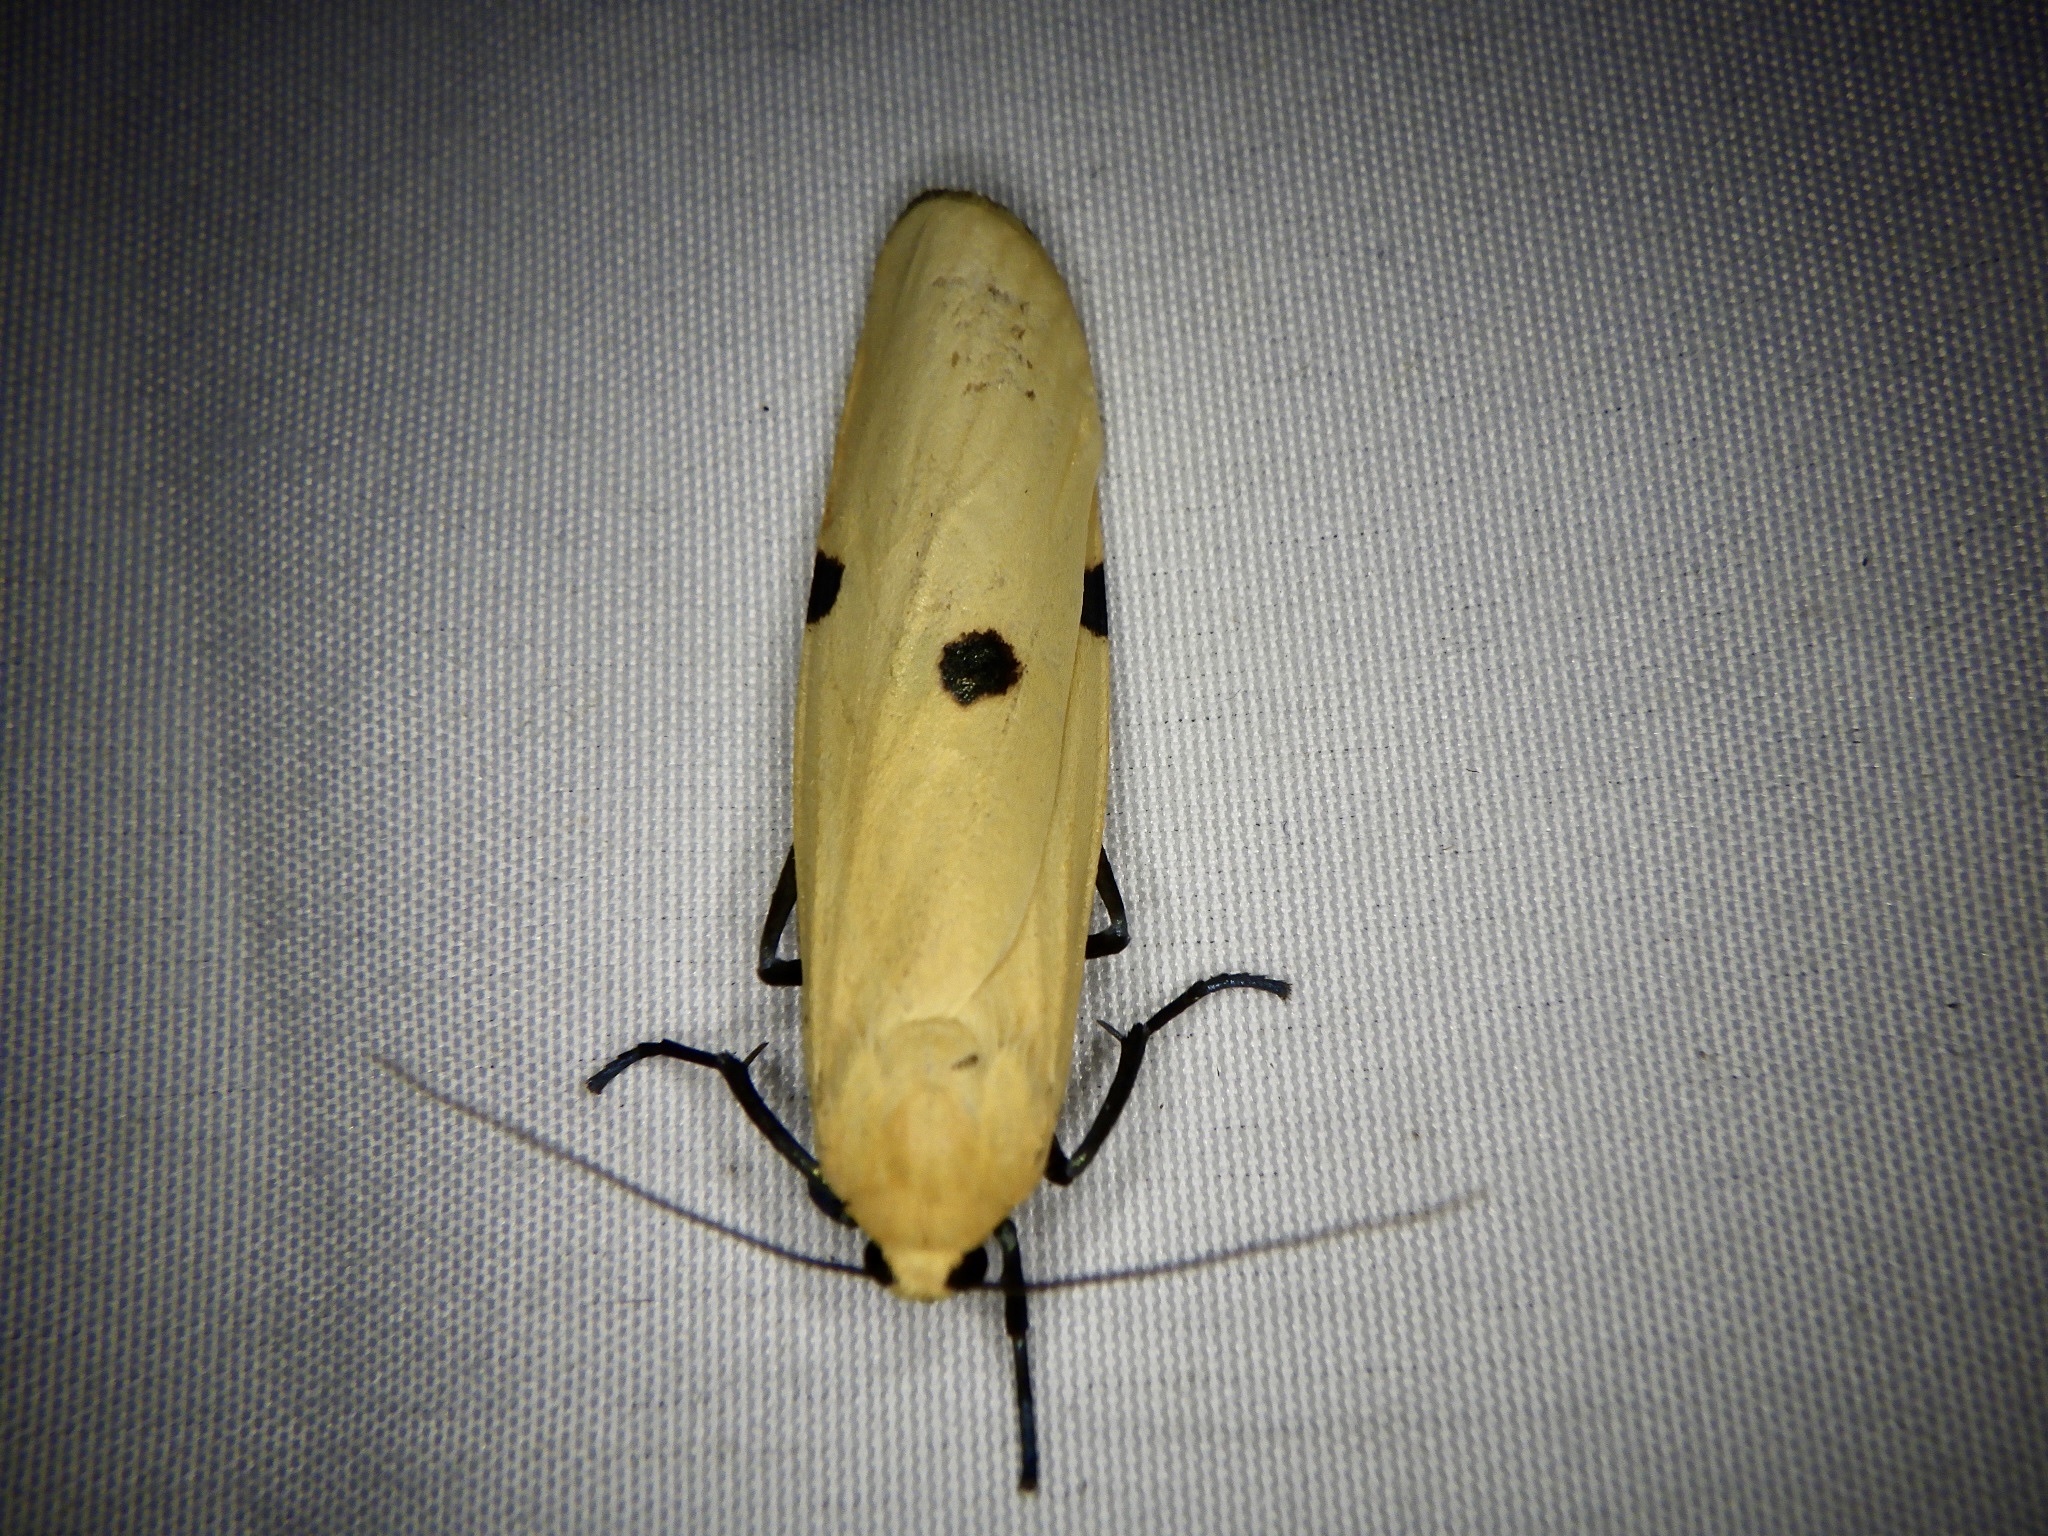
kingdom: Animalia
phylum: Arthropoda
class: Insecta
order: Lepidoptera
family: Erebidae
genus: Lithosia
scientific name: Lithosia quadra
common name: Four-spotted footman
